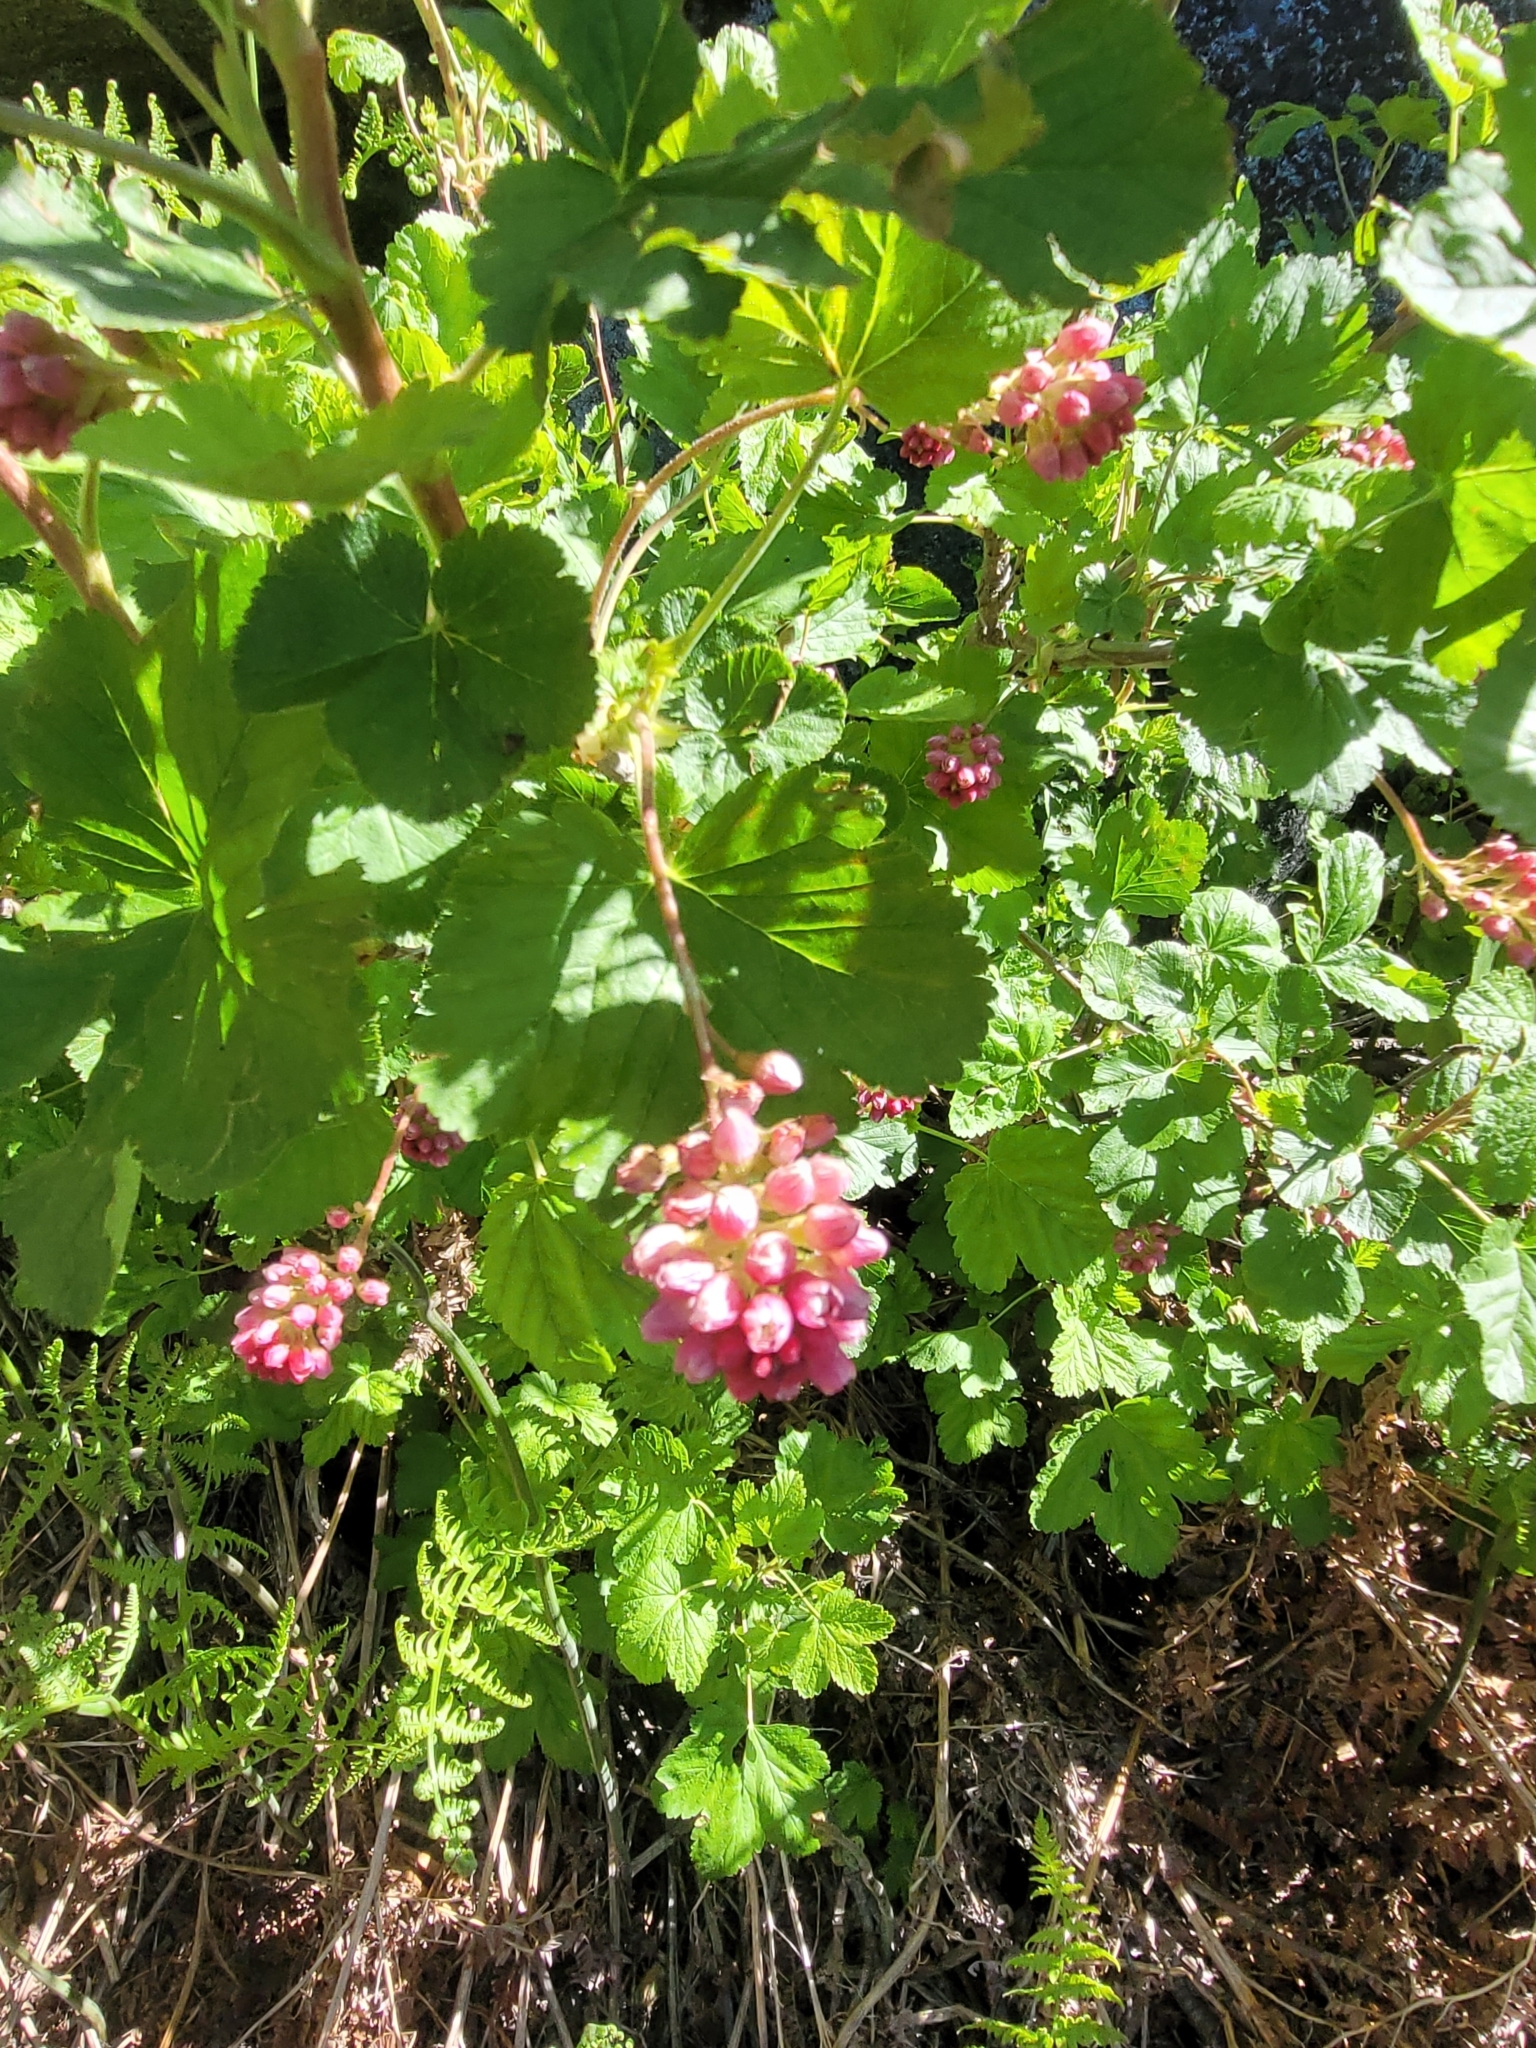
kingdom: Plantae
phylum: Tracheophyta
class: Magnoliopsida
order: Saxifragales
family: Grossulariaceae
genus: Ribes
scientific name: Ribes nevadense
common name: Mountain pink currant
